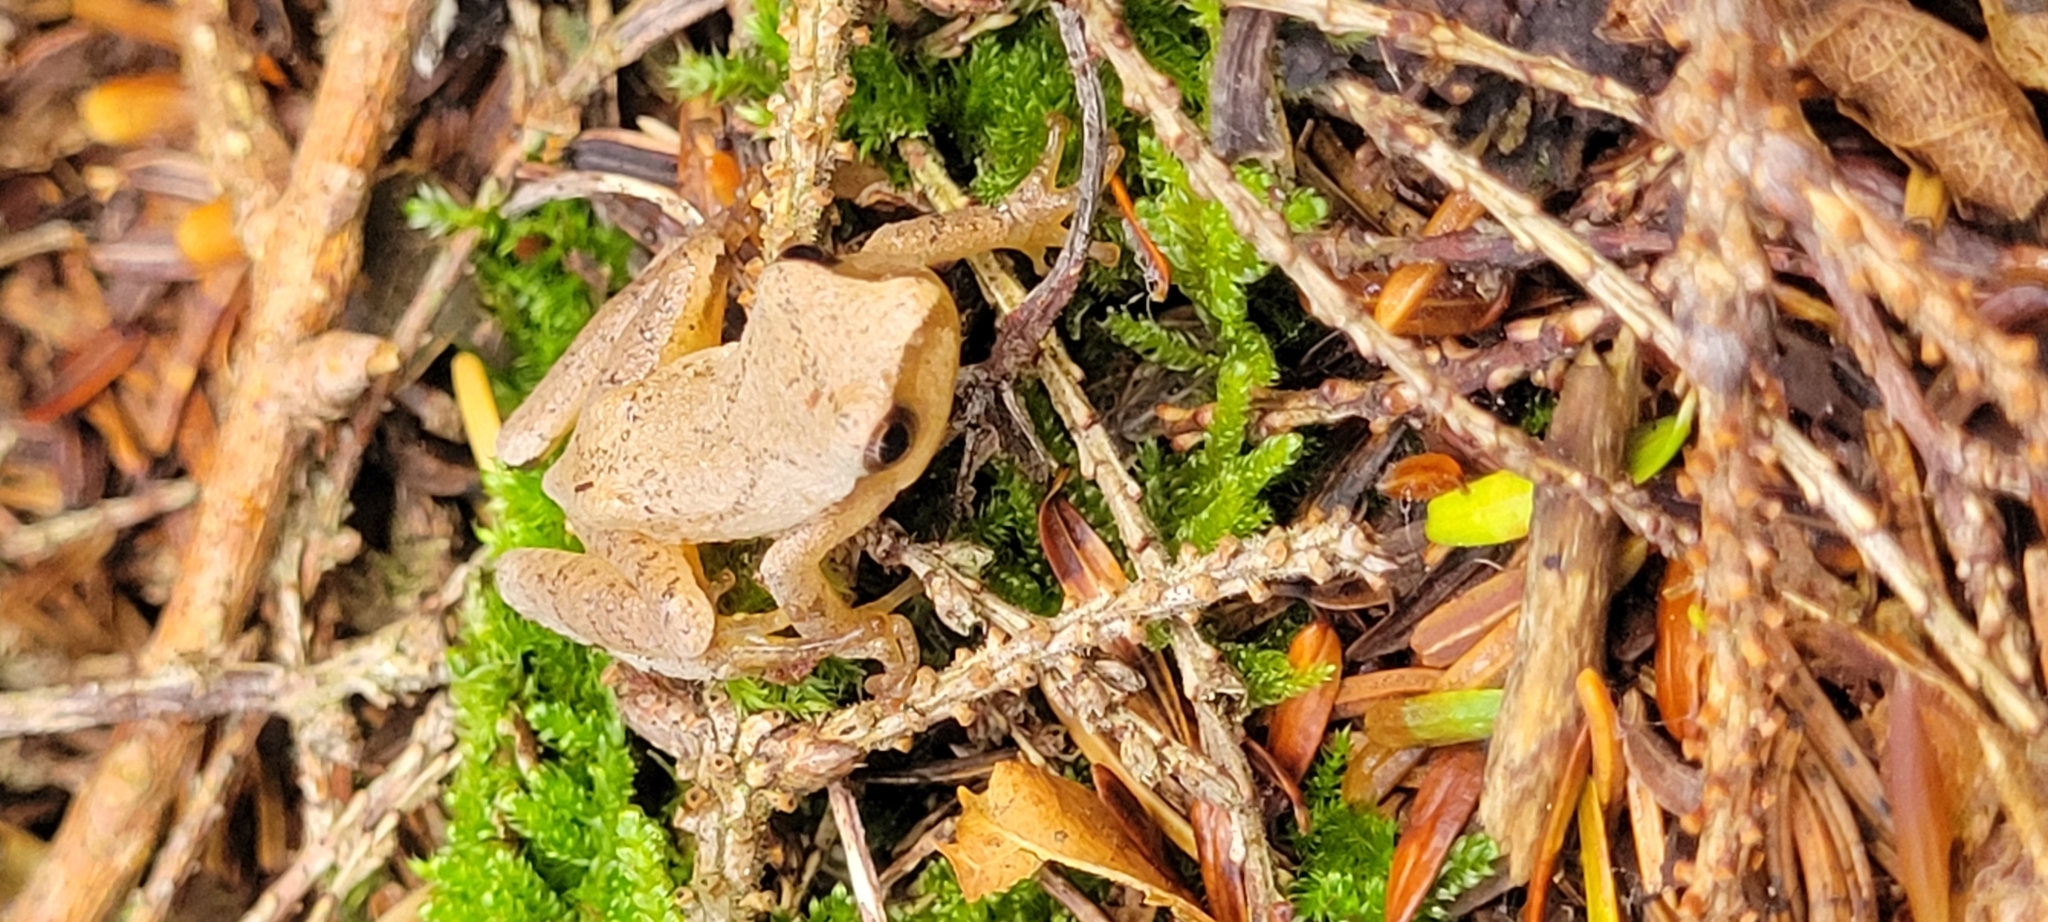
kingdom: Animalia
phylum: Chordata
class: Amphibia
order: Anura
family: Hylidae
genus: Pseudacris
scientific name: Pseudacris crucifer
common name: Spring peeper
